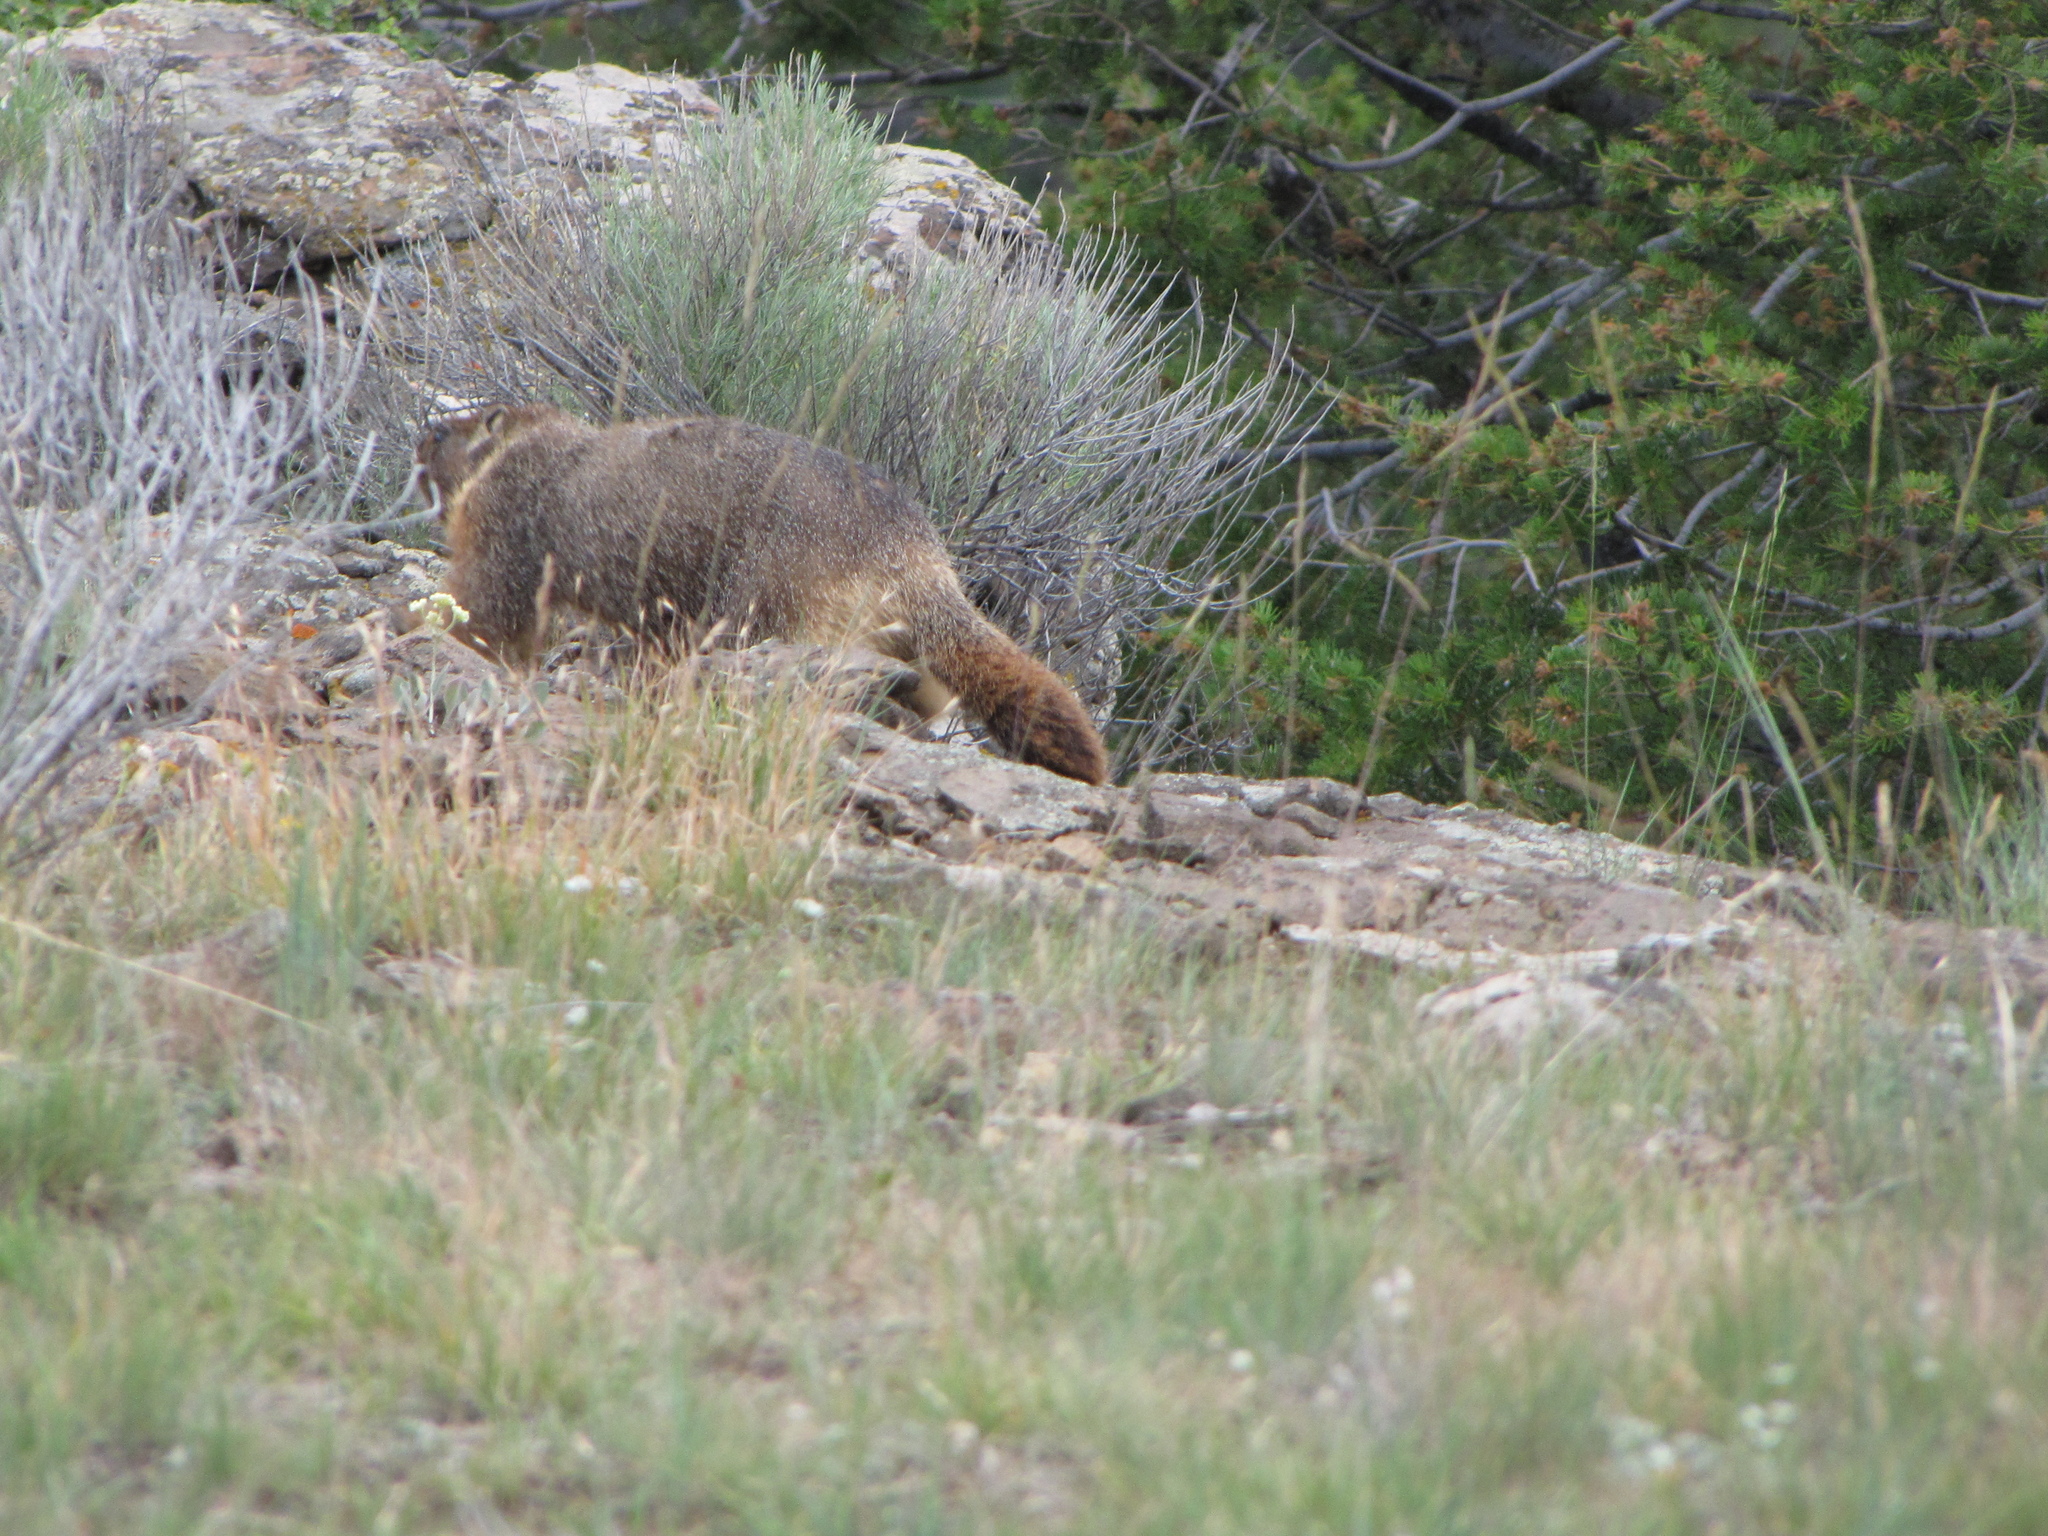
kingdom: Animalia
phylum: Chordata
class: Mammalia
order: Rodentia
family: Sciuridae
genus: Marmota
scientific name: Marmota flaviventris
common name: Yellow-bellied marmot
